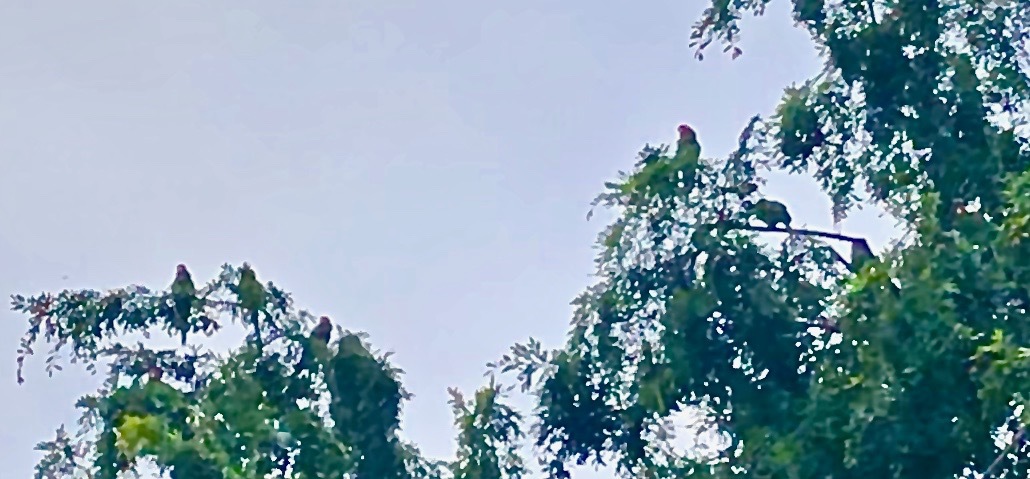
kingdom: Animalia
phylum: Chordata
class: Aves
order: Psittaciformes
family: Psittacidae
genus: Aratinga
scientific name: Aratinga erythrogenys
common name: Red-masked parakeet
